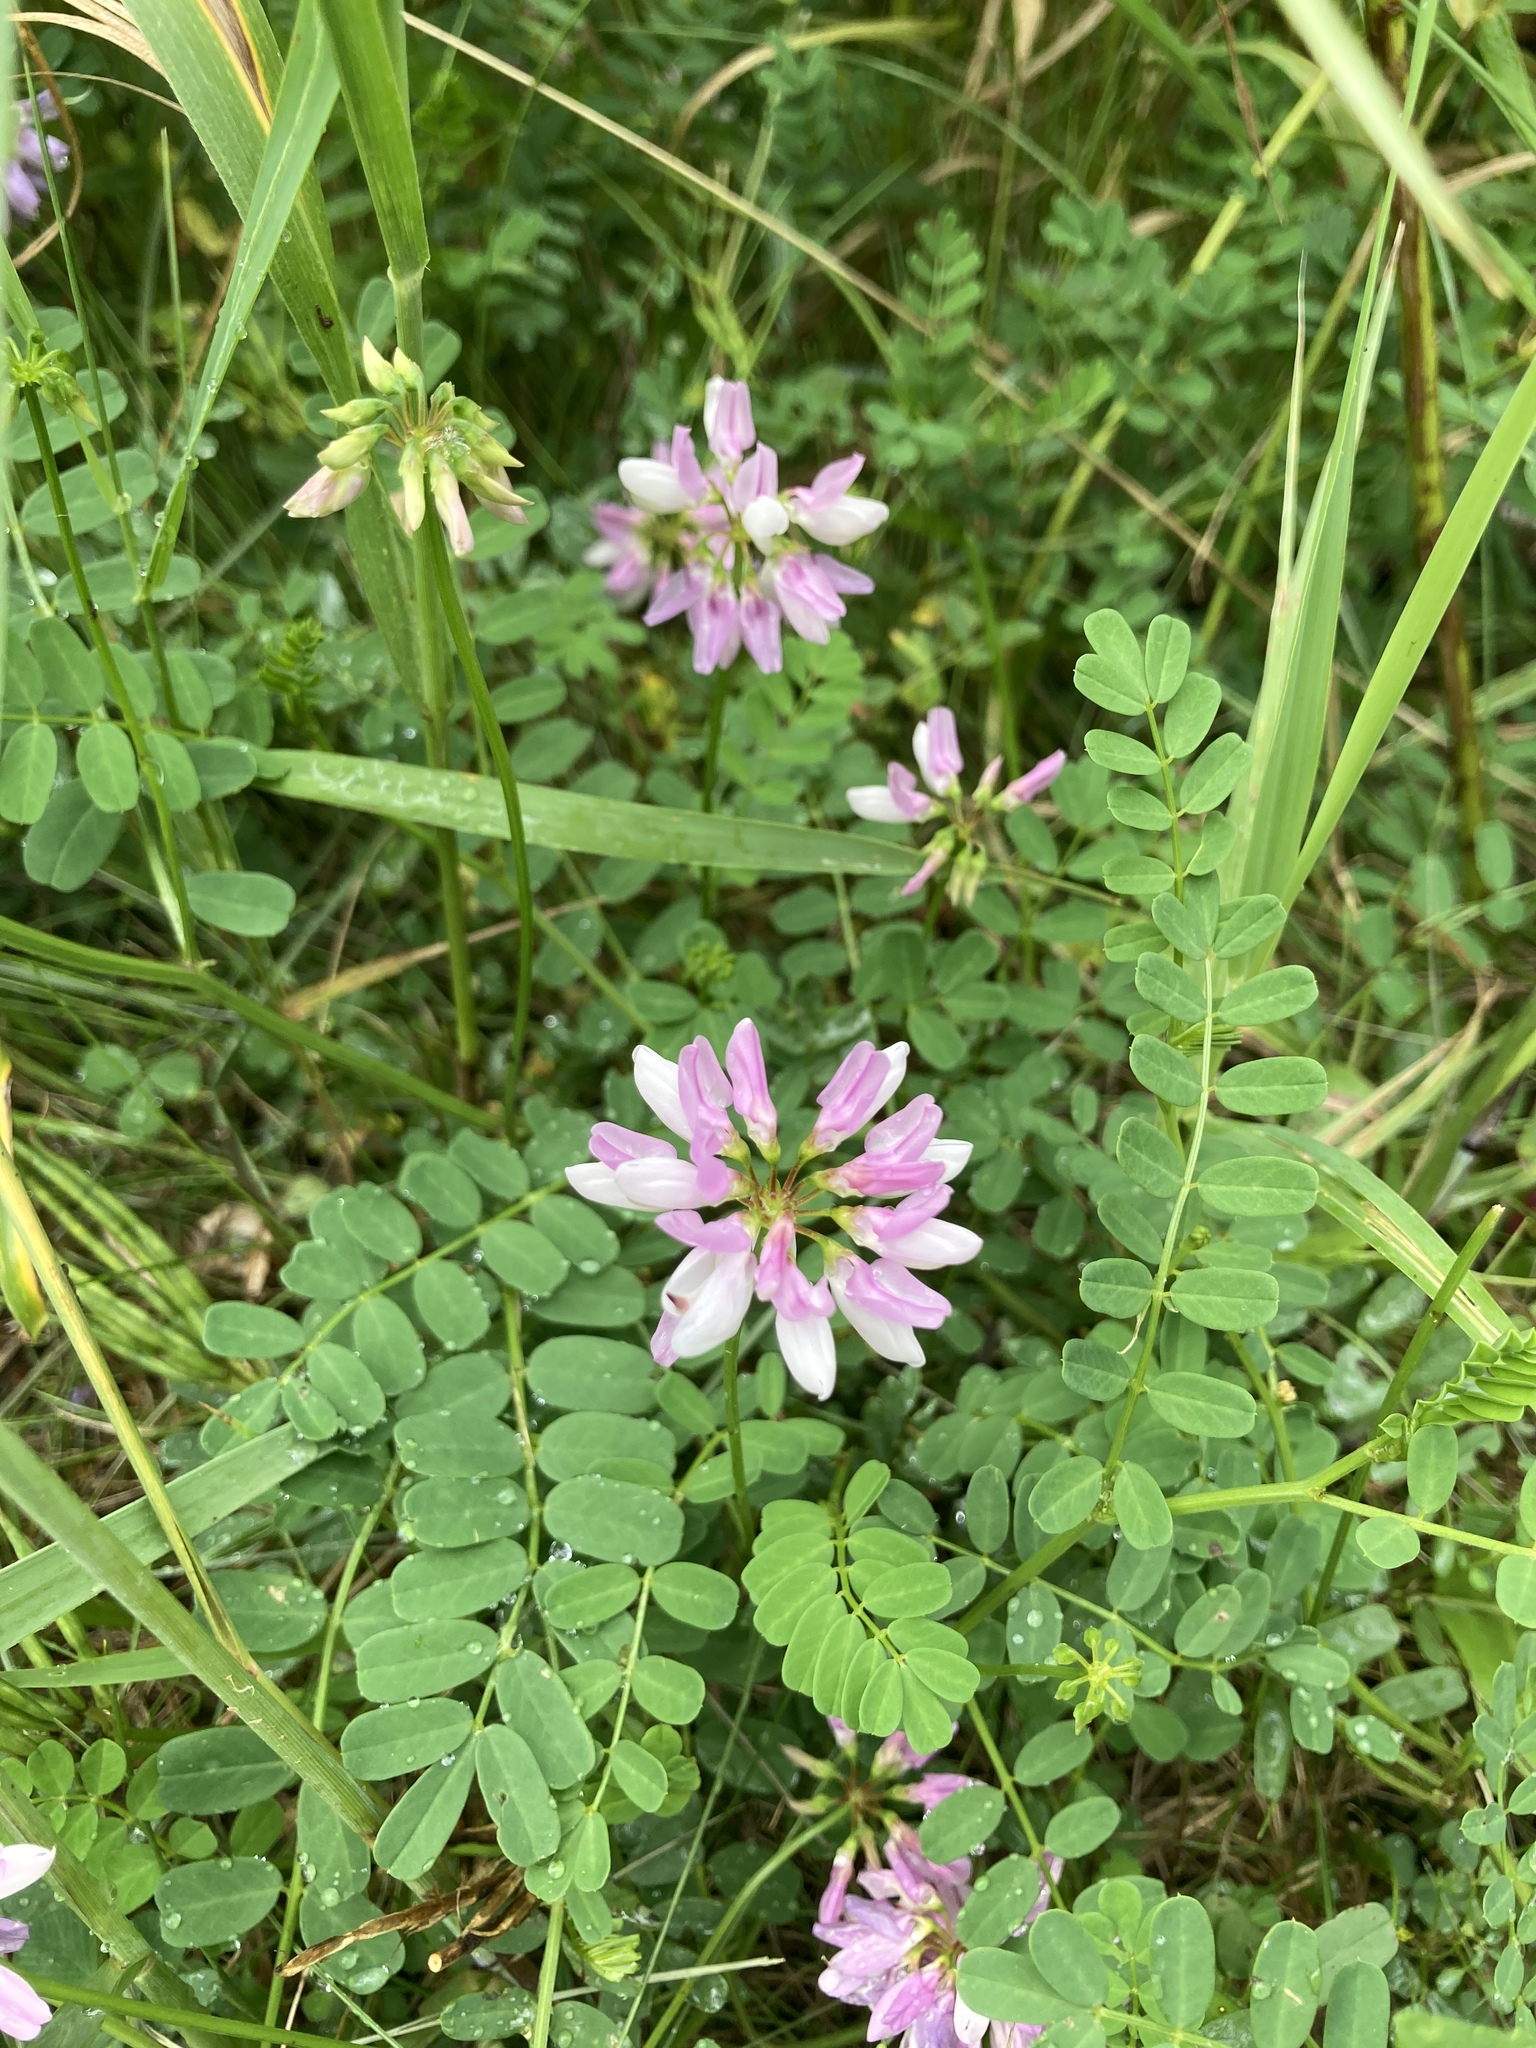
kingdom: Plantae
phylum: Tracheophyta
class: Magnoliopsida
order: Fabales
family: Fabaceae
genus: Coronilla
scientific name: Coronilla varia
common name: Crownvetch
